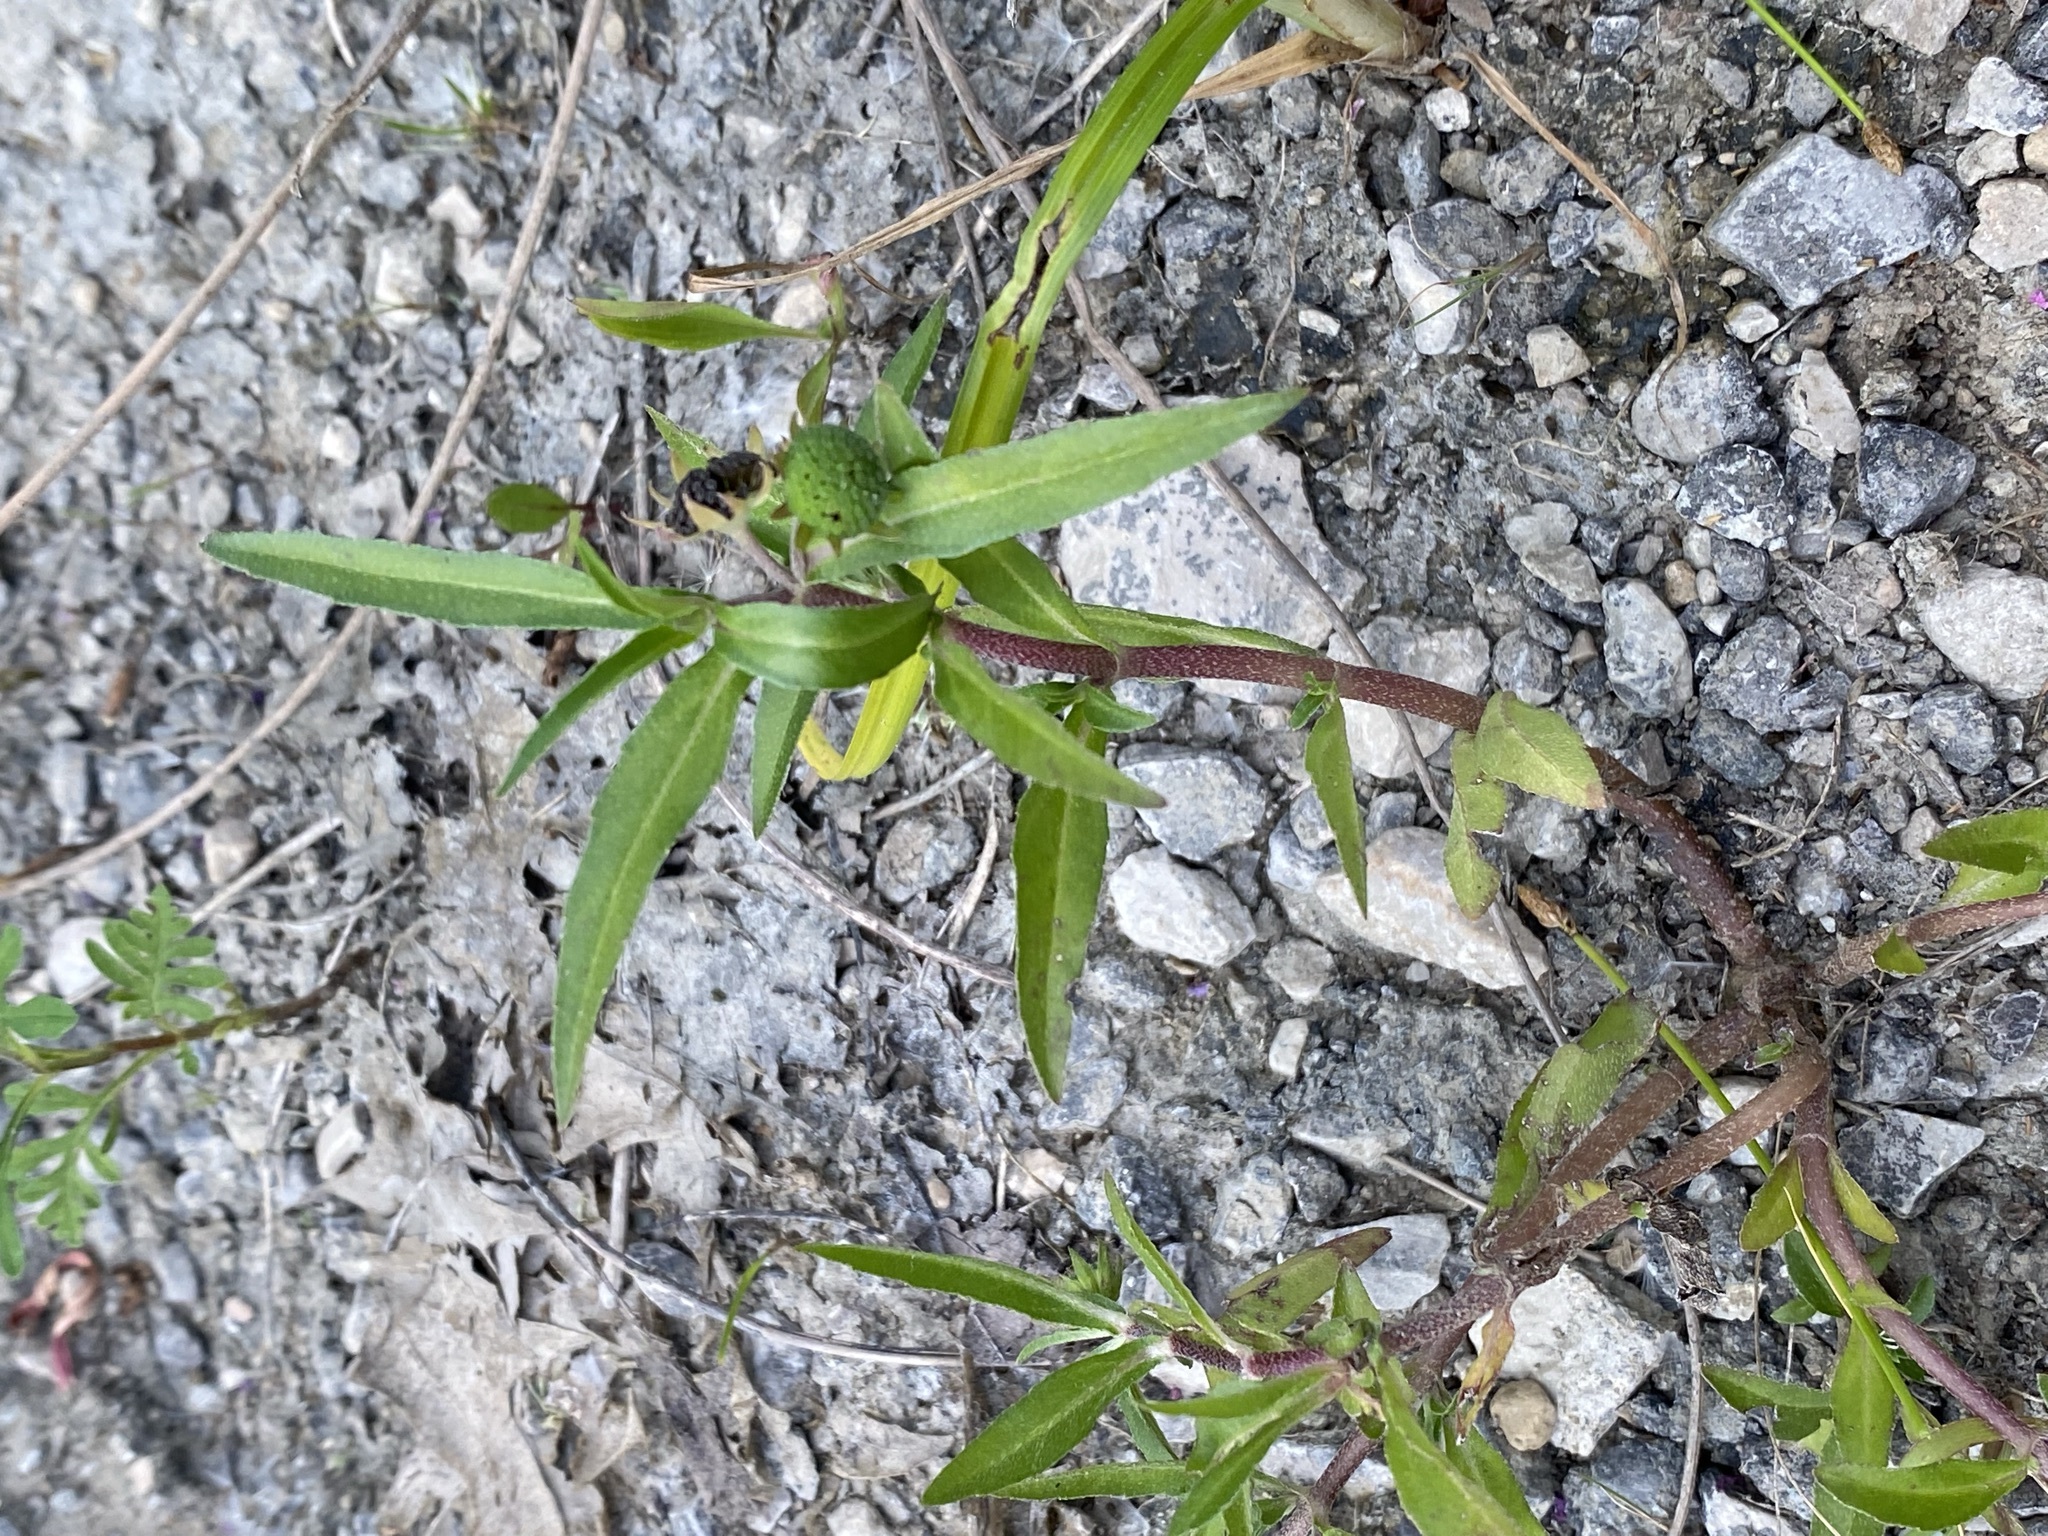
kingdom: Plantae
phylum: Tracheophyta
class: Magnoliopsida
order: Asterales
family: Asteraceae
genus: Eclipta
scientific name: Eclipta prostrata
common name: False daisy
